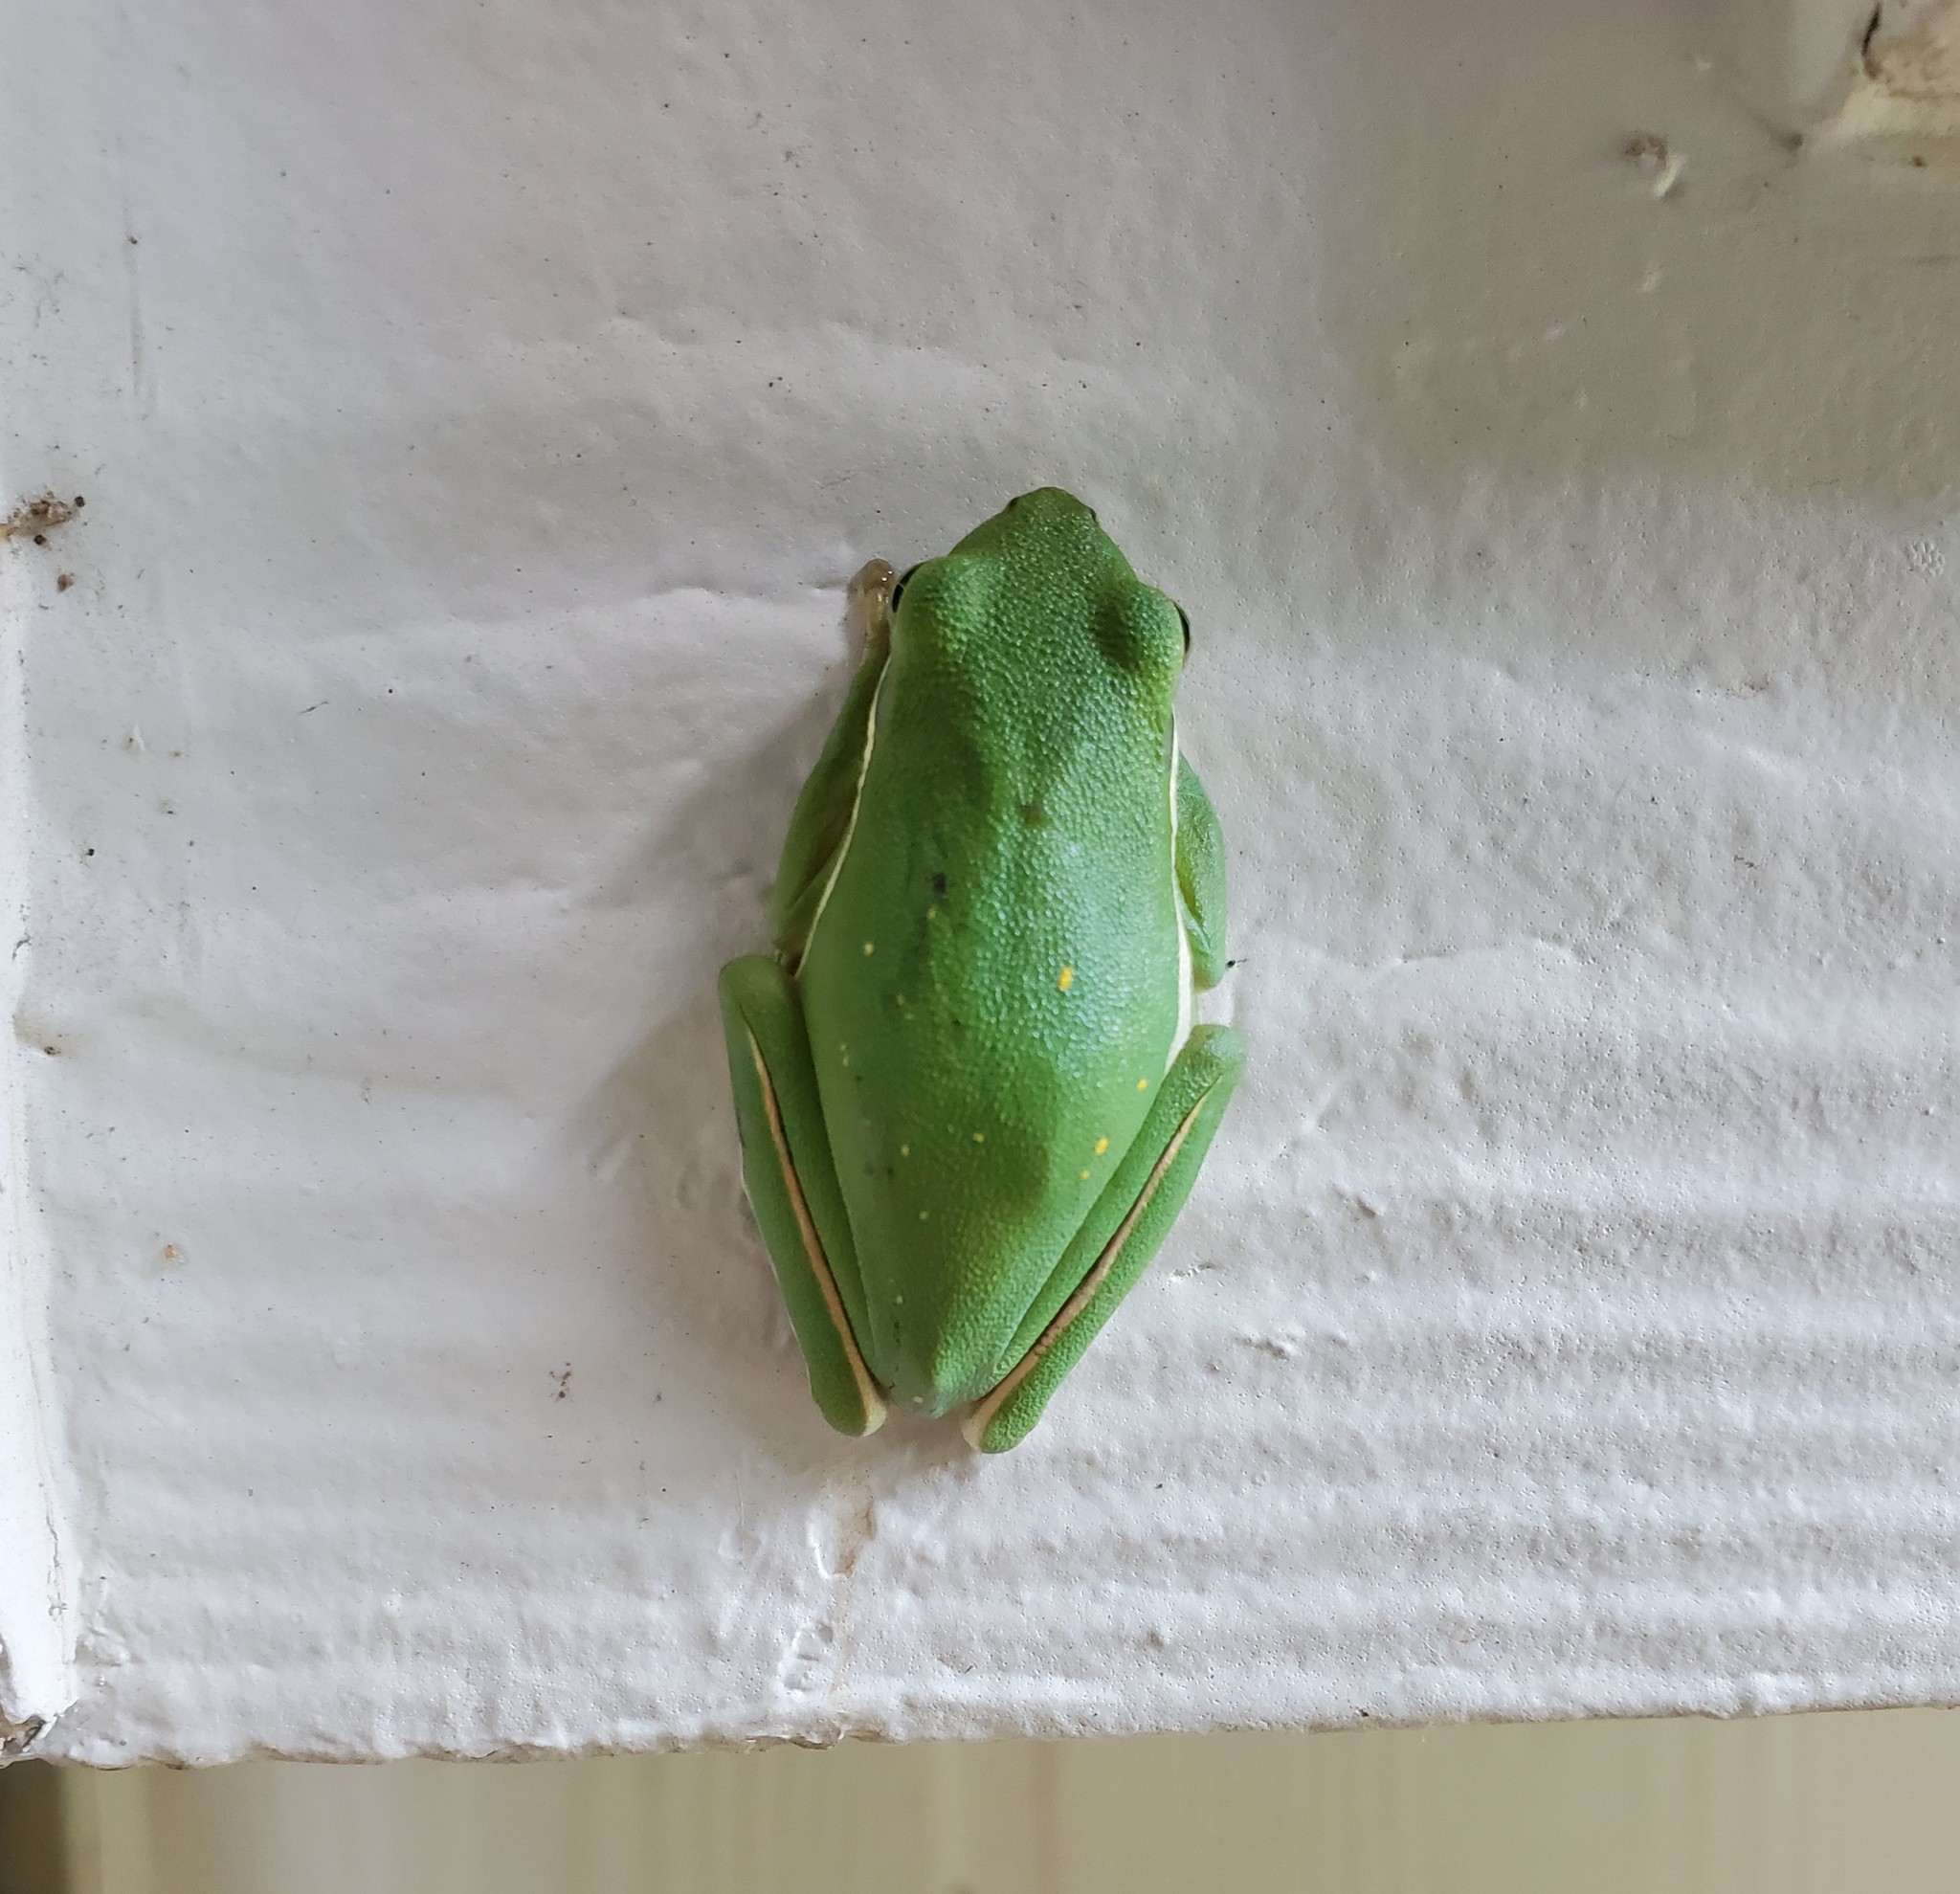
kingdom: Animalia
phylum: Chordata
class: Amphibia
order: Anura
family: Hylidae
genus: Dryophytes
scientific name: Dryophytes cinereus
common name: Green treefrog
